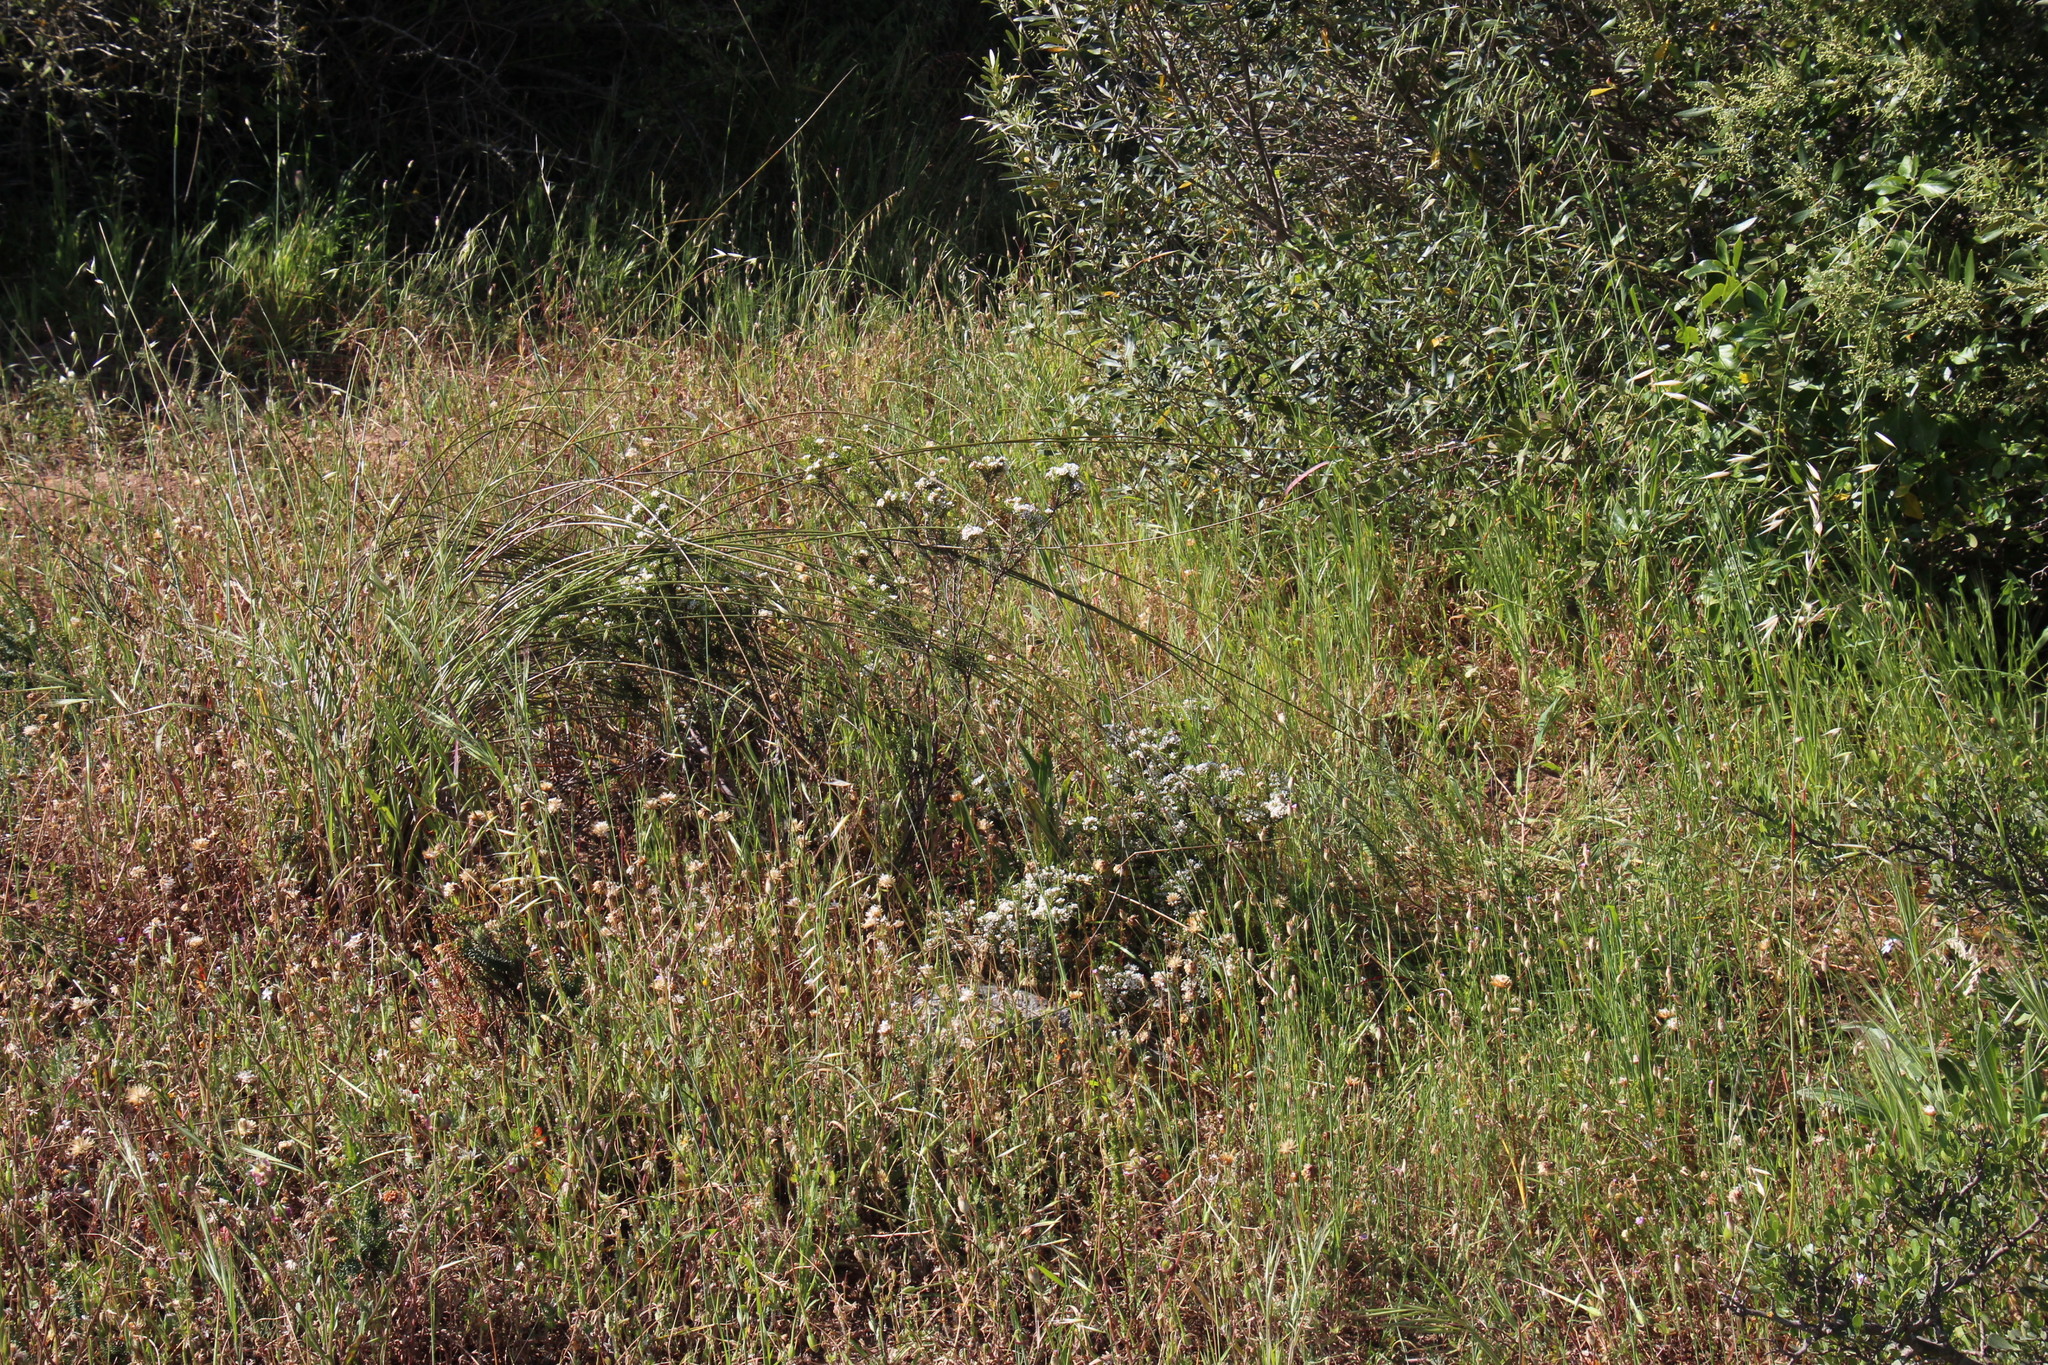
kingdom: Plantae
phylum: Tracheophyta
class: Magnoliopsida
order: Sapindales
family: Rutaceae
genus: Diosma
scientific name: Diosma hirsuta
